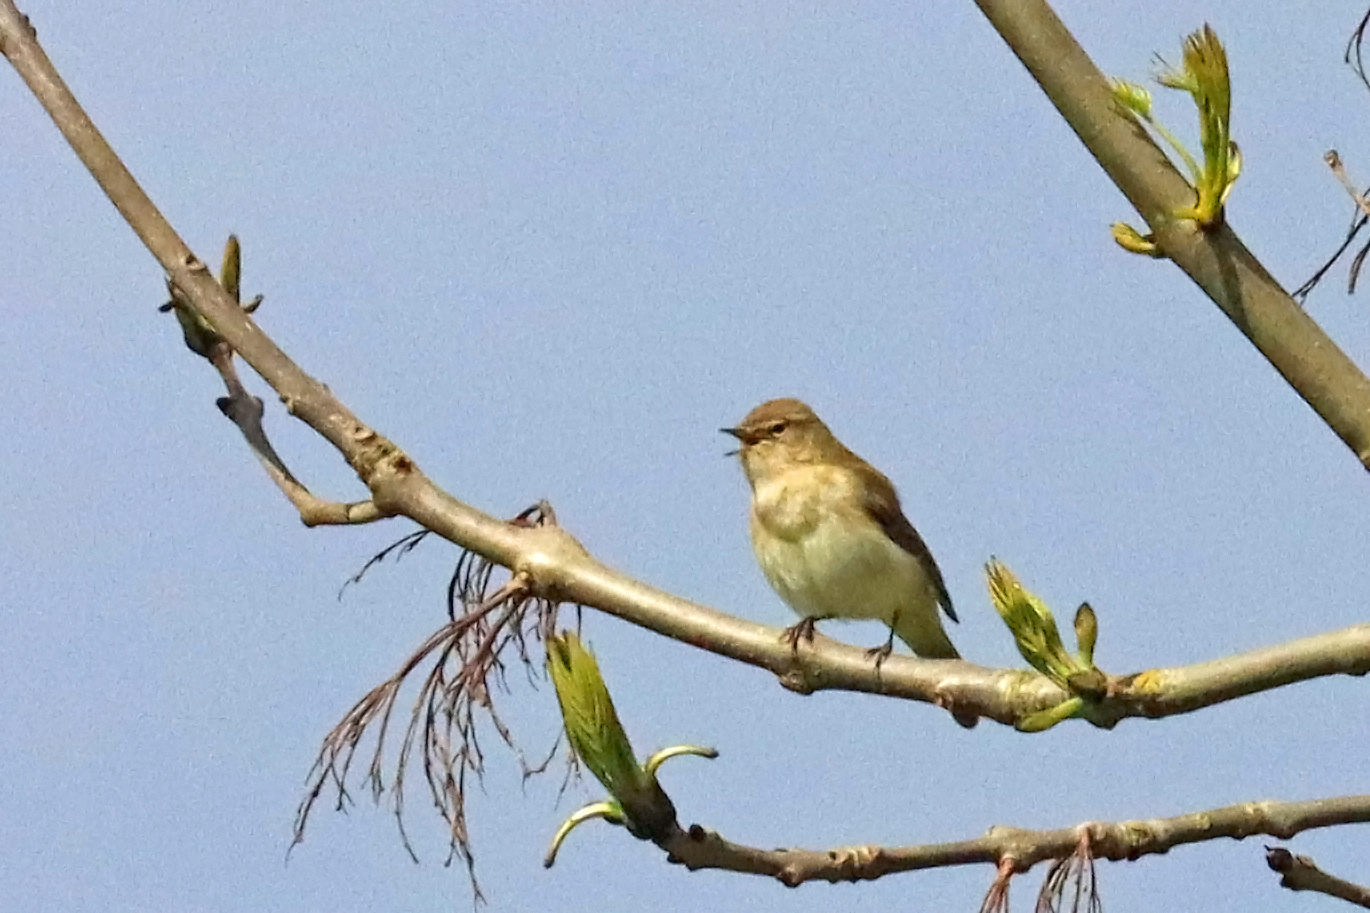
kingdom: Animalia
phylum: Chordata
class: Aves
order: Passeriformes
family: Phylloscopidae
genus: Phylloscopus
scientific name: Phylloscopus collybita
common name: Common chiffchaff
